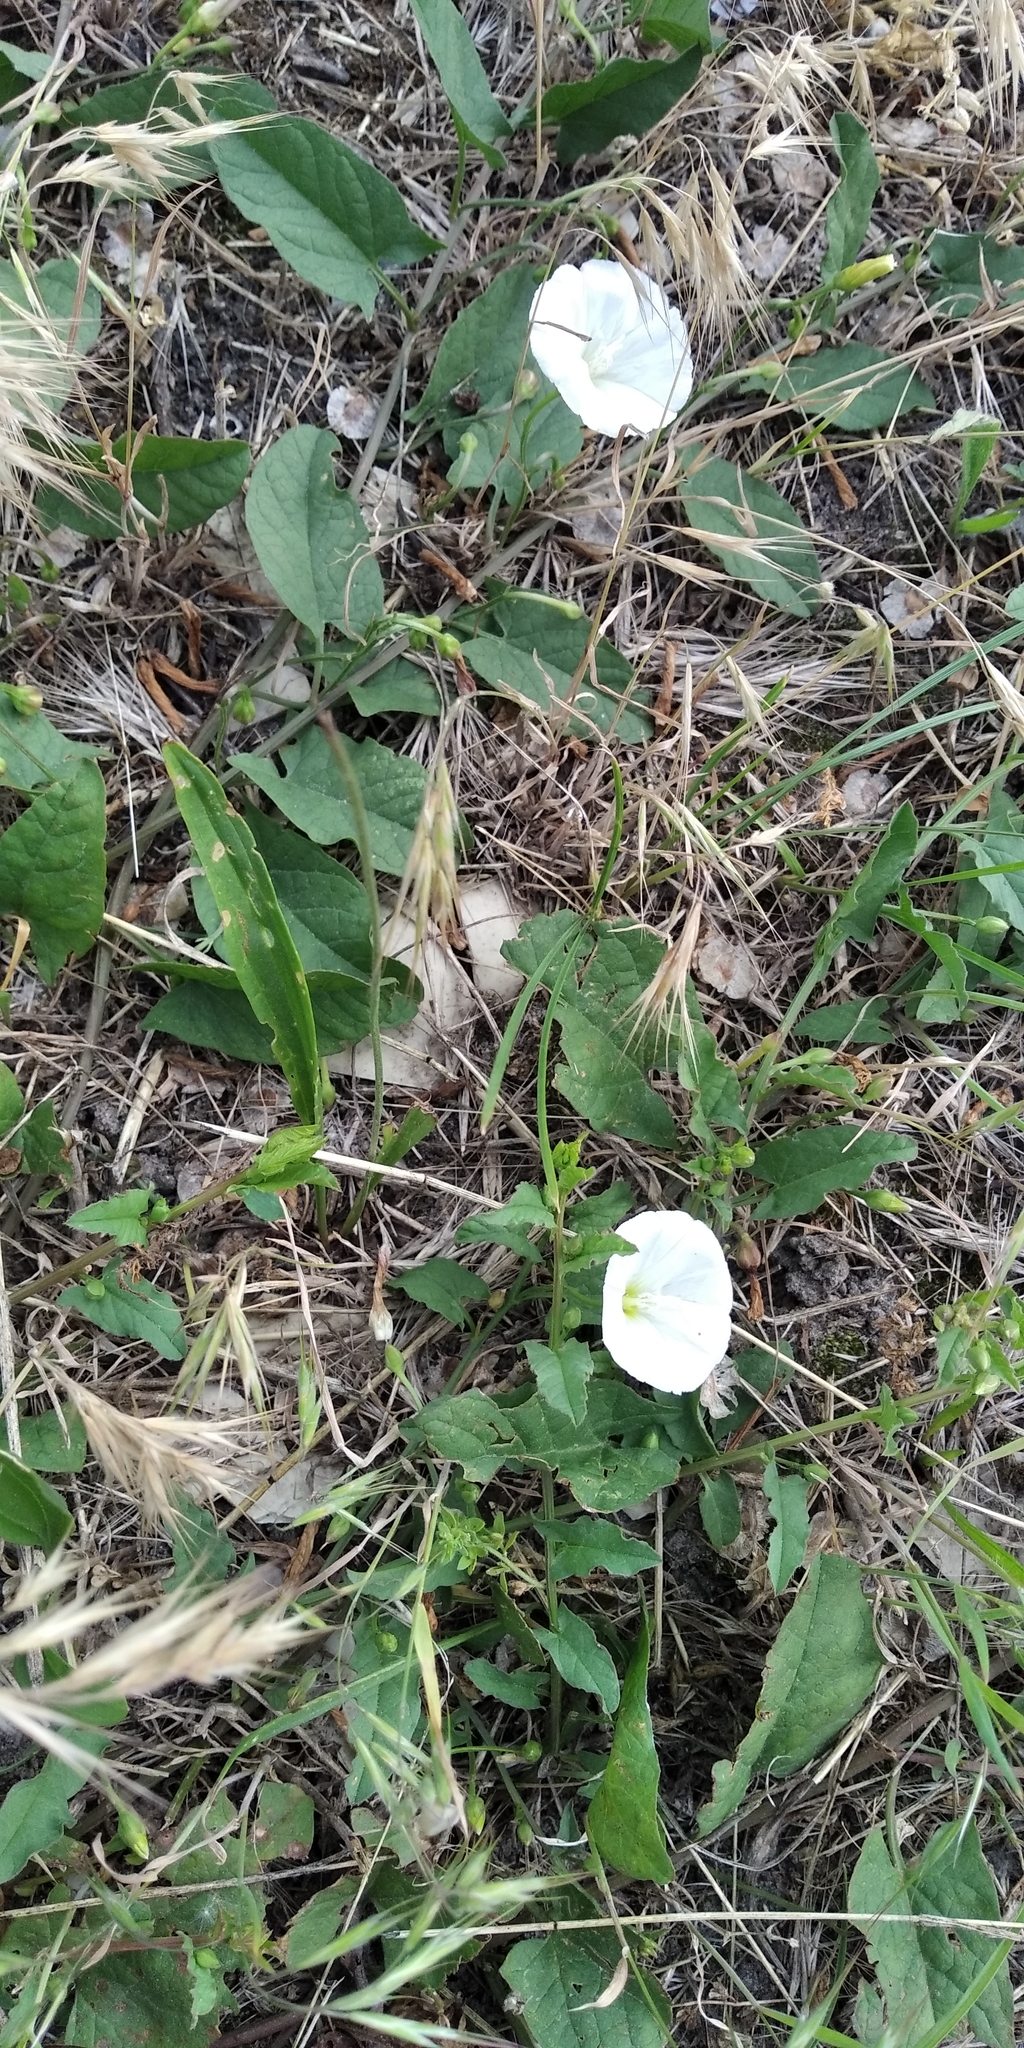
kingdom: Plantae
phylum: Tracheophyta
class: Magnoliopsida
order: Solanales
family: Convolvulaceae
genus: Convolvulus
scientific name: Convolvulus arvensis
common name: Field bindweed
